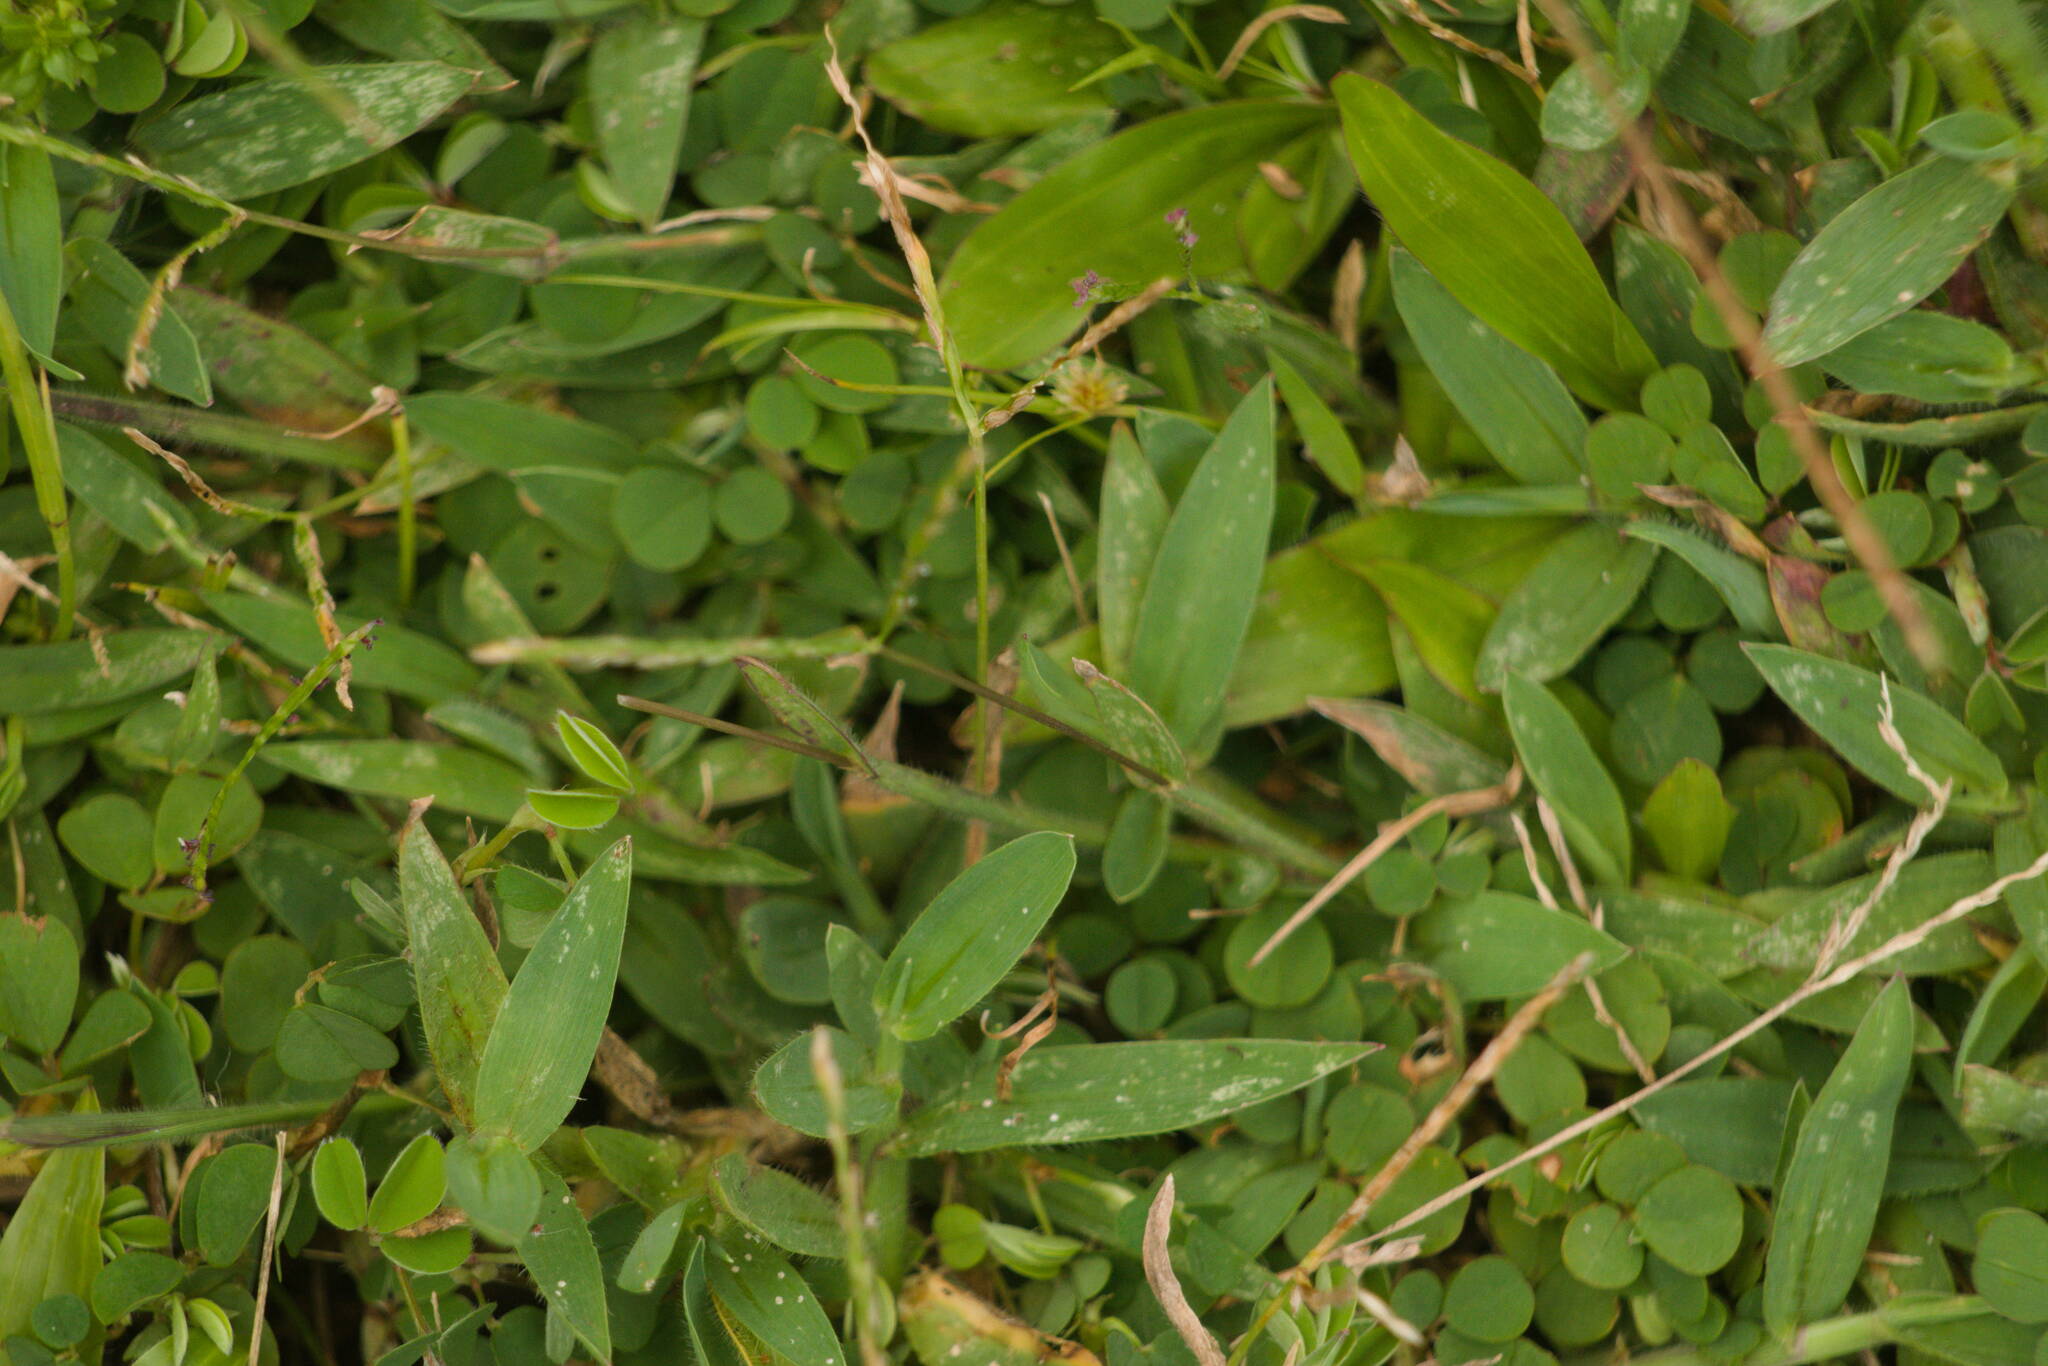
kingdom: Plantae
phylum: Tracheophyta
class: Liliopsida
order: Poales
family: Poaceae
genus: Digitaria
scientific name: Digitaria mollicoma
